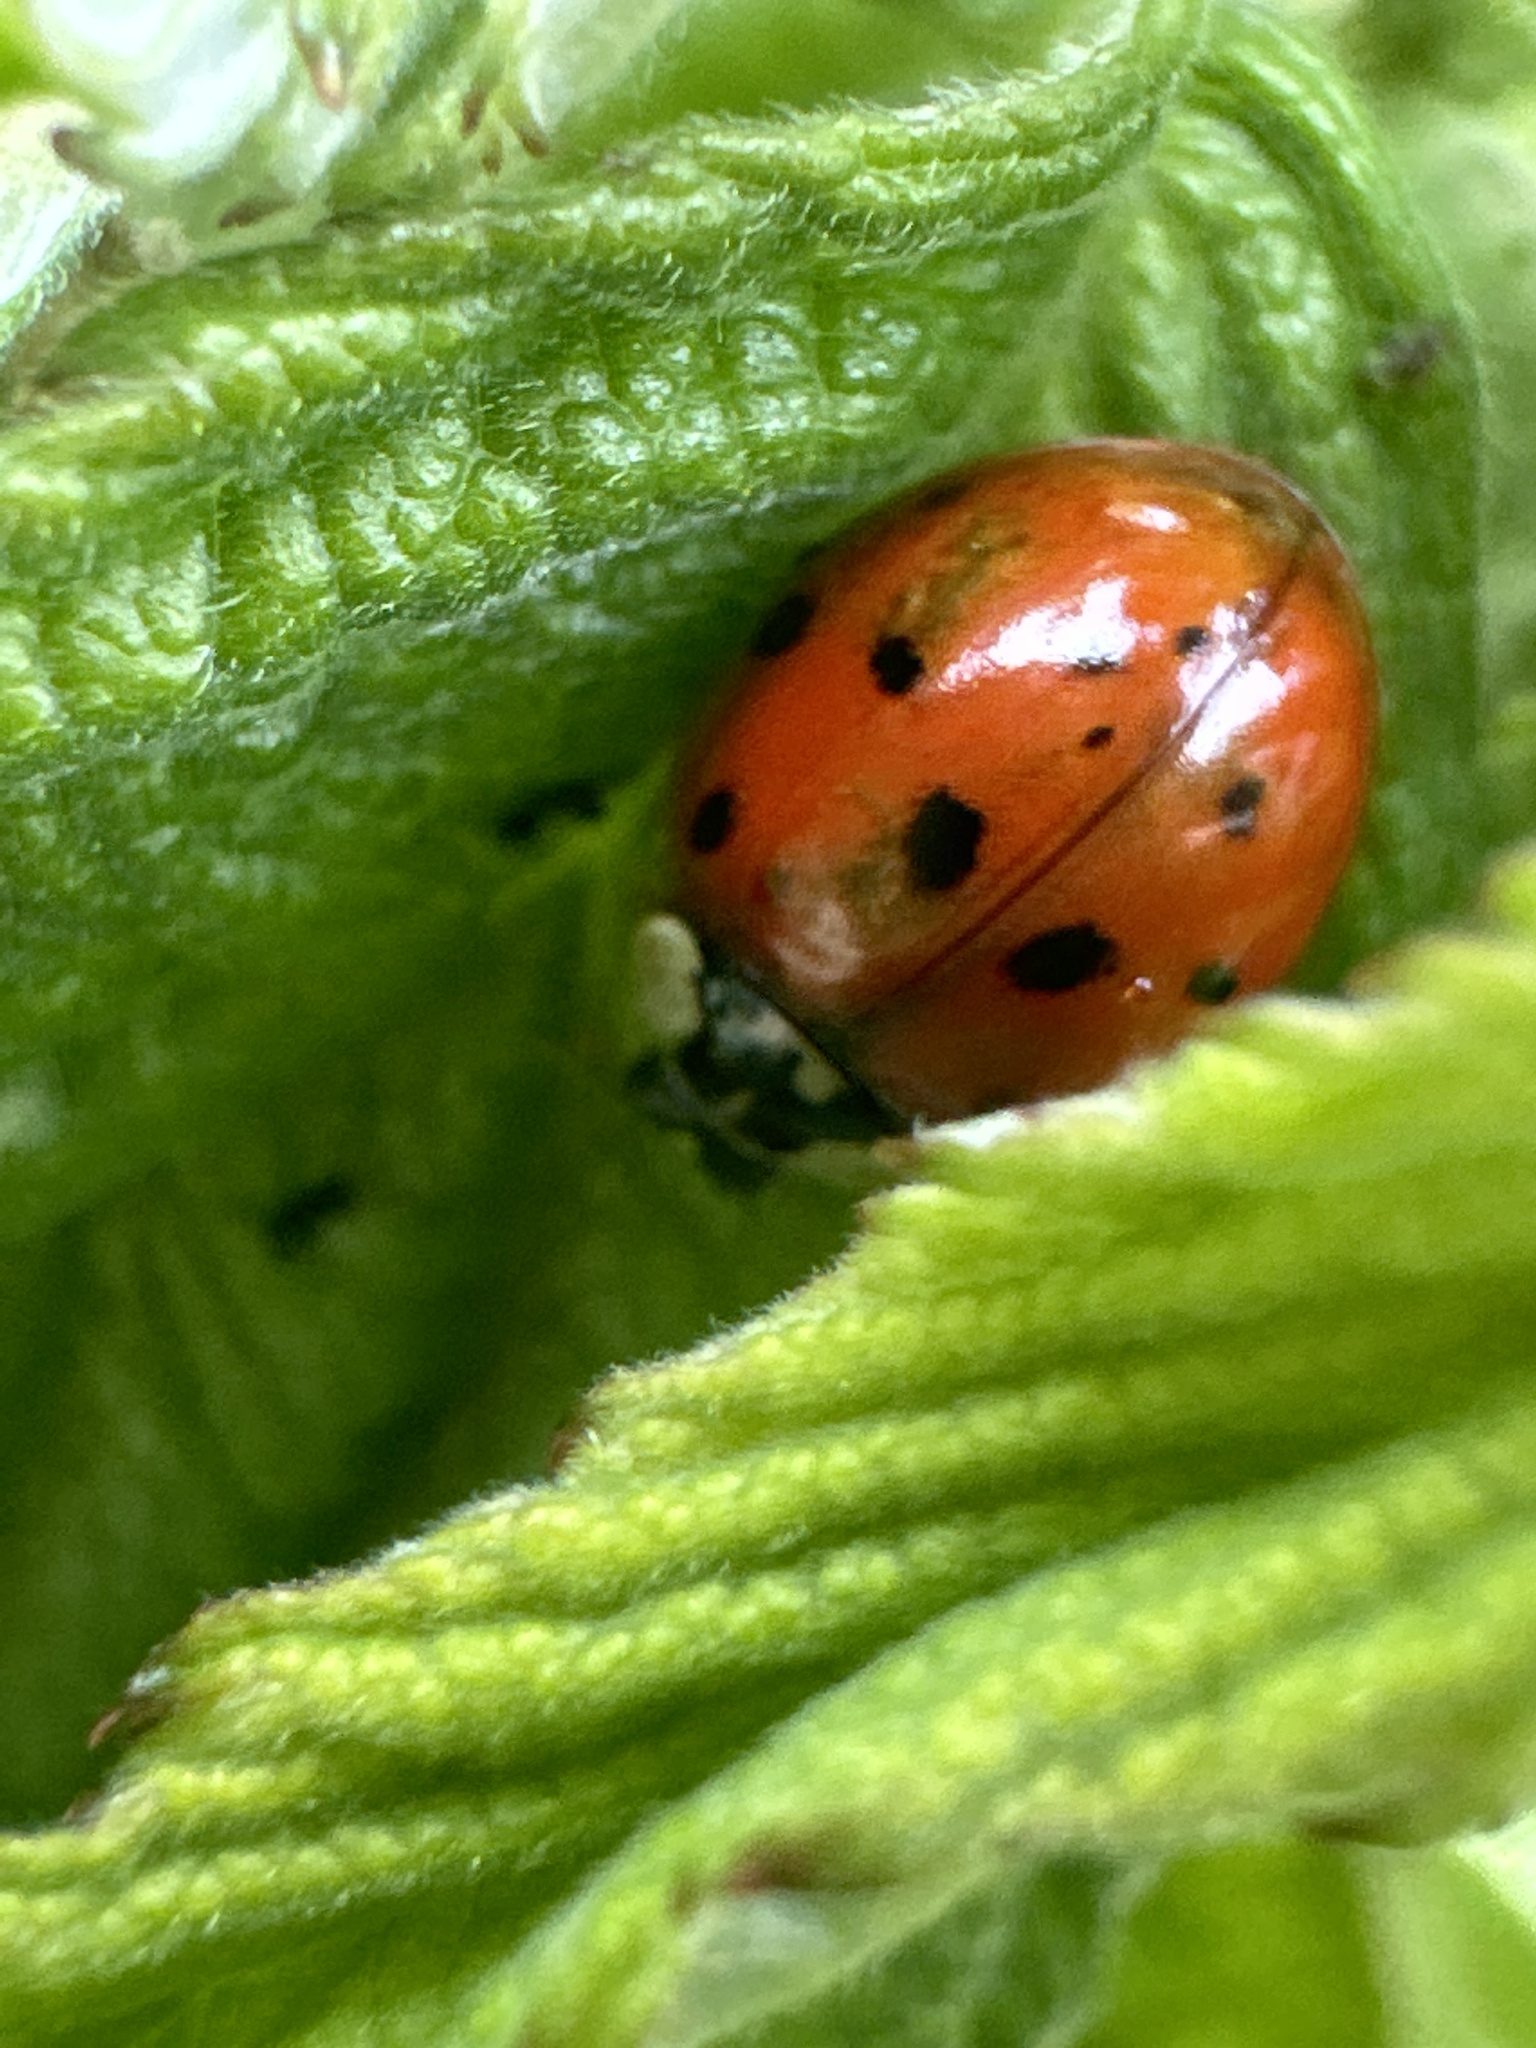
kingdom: Animalia
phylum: Arthropoda
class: Insecta
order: Coleoptera
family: Coccinellidae
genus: Harmonia
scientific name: Harmonia axyridis
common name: Harlequin ladybird
